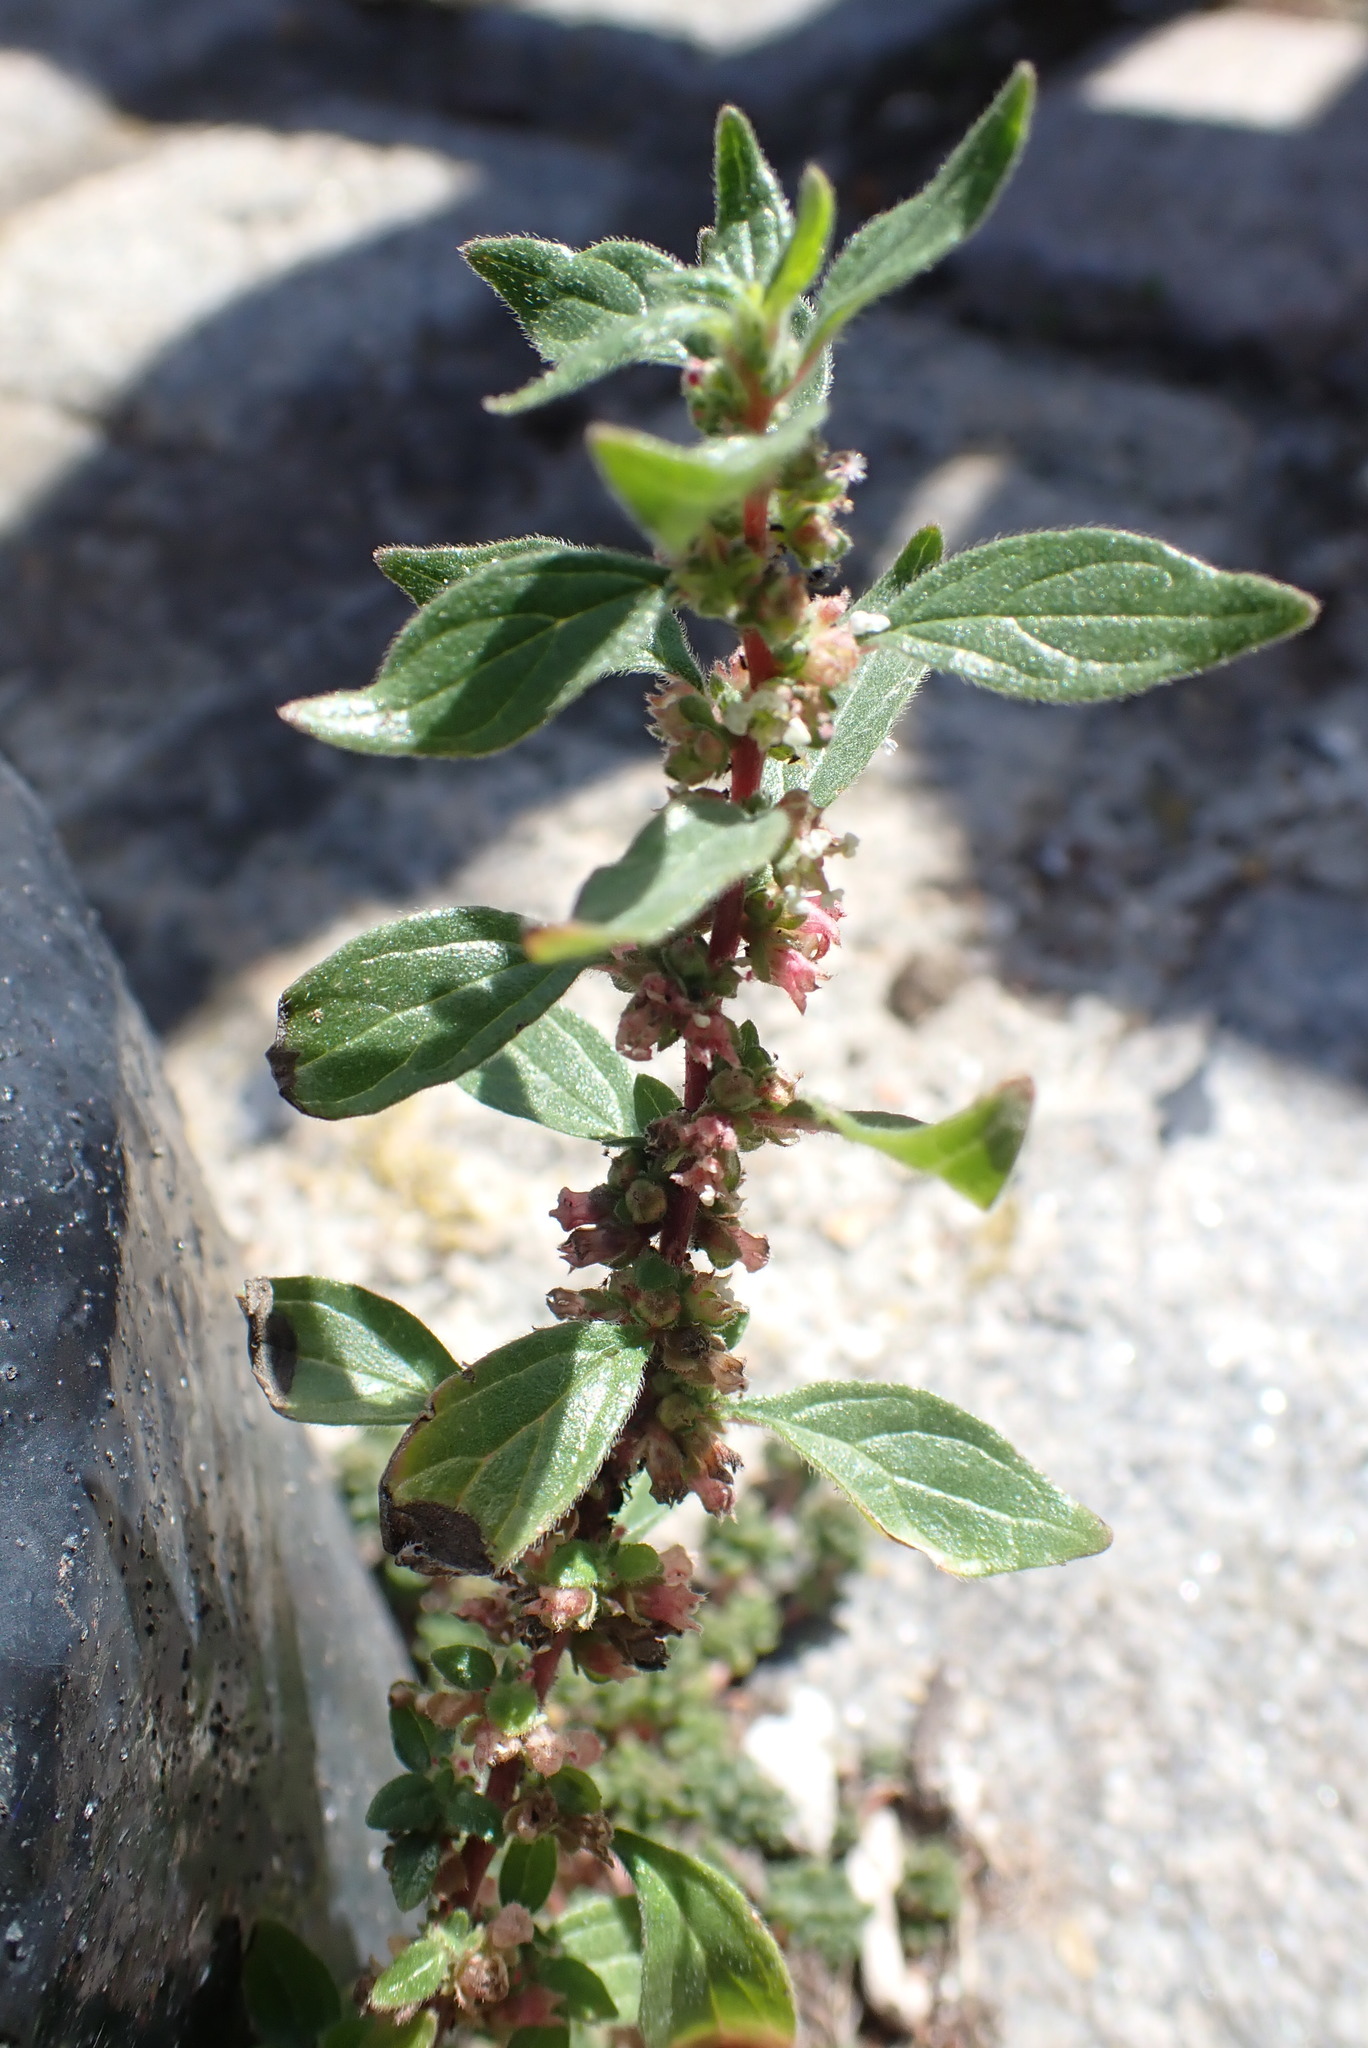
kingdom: Plantae
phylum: Tracheophyta
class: Magnoliopsida
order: Rosales
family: Urticaceae
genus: Parietaria
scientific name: Parietaria judaica
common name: Pellitory-of-the-wall
